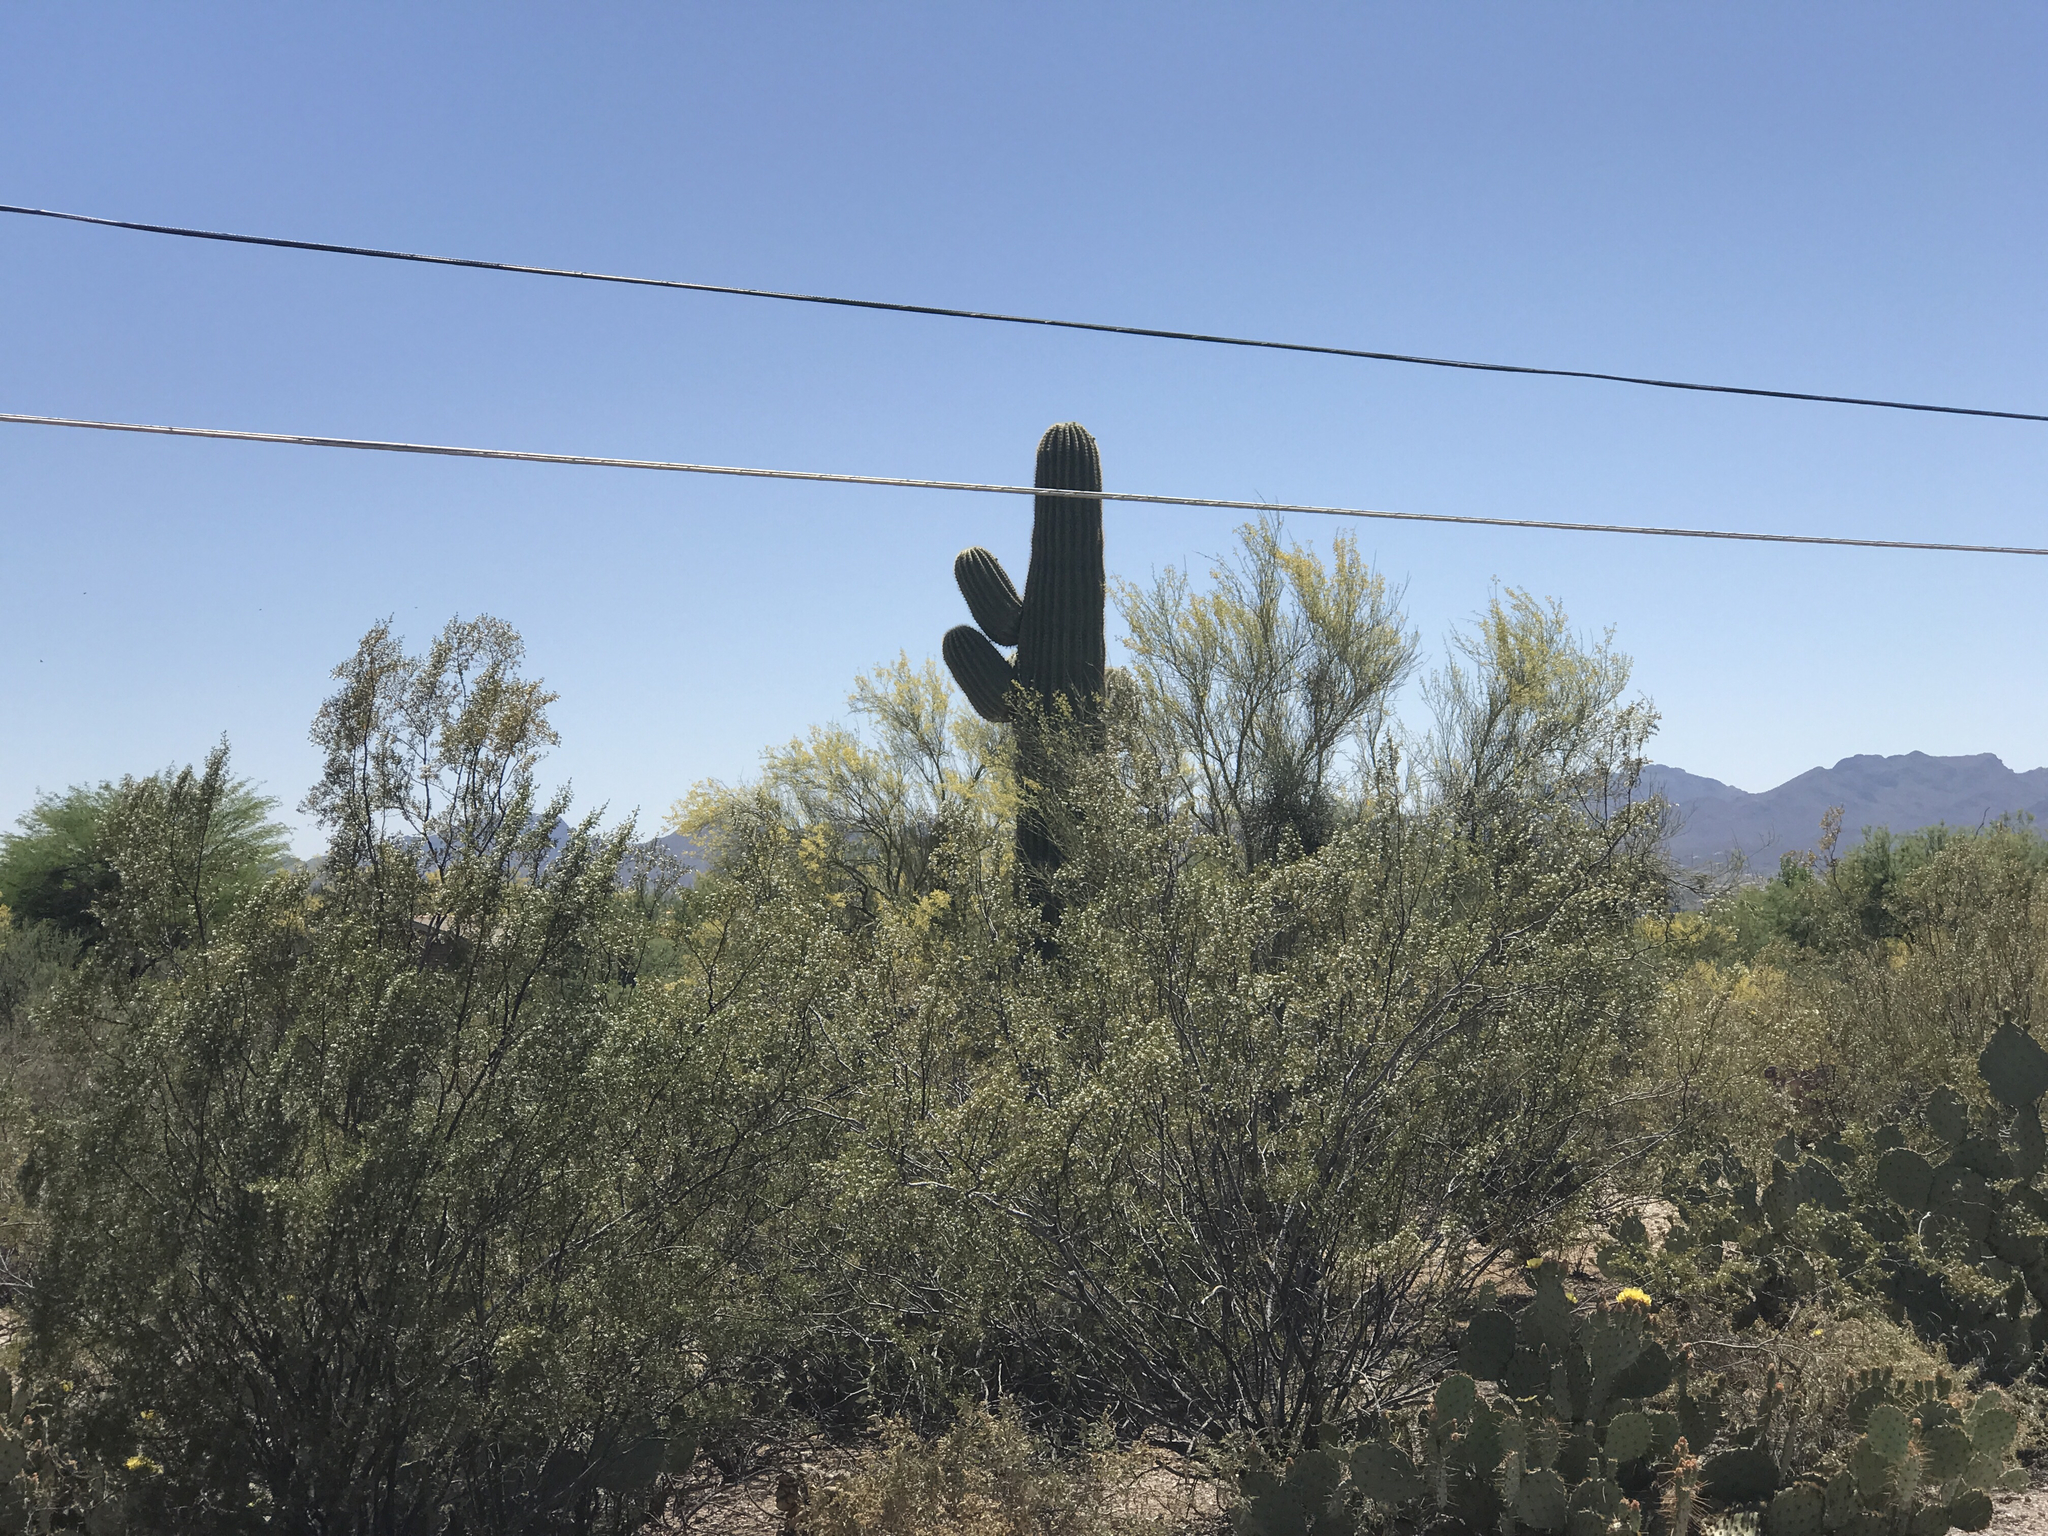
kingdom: Plantae
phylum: Tracheophyta
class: Magnoliopsida
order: Caryophyllales
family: Cactaceae
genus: Carnegiea
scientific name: Carnegiea gigantea
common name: Saguaro
